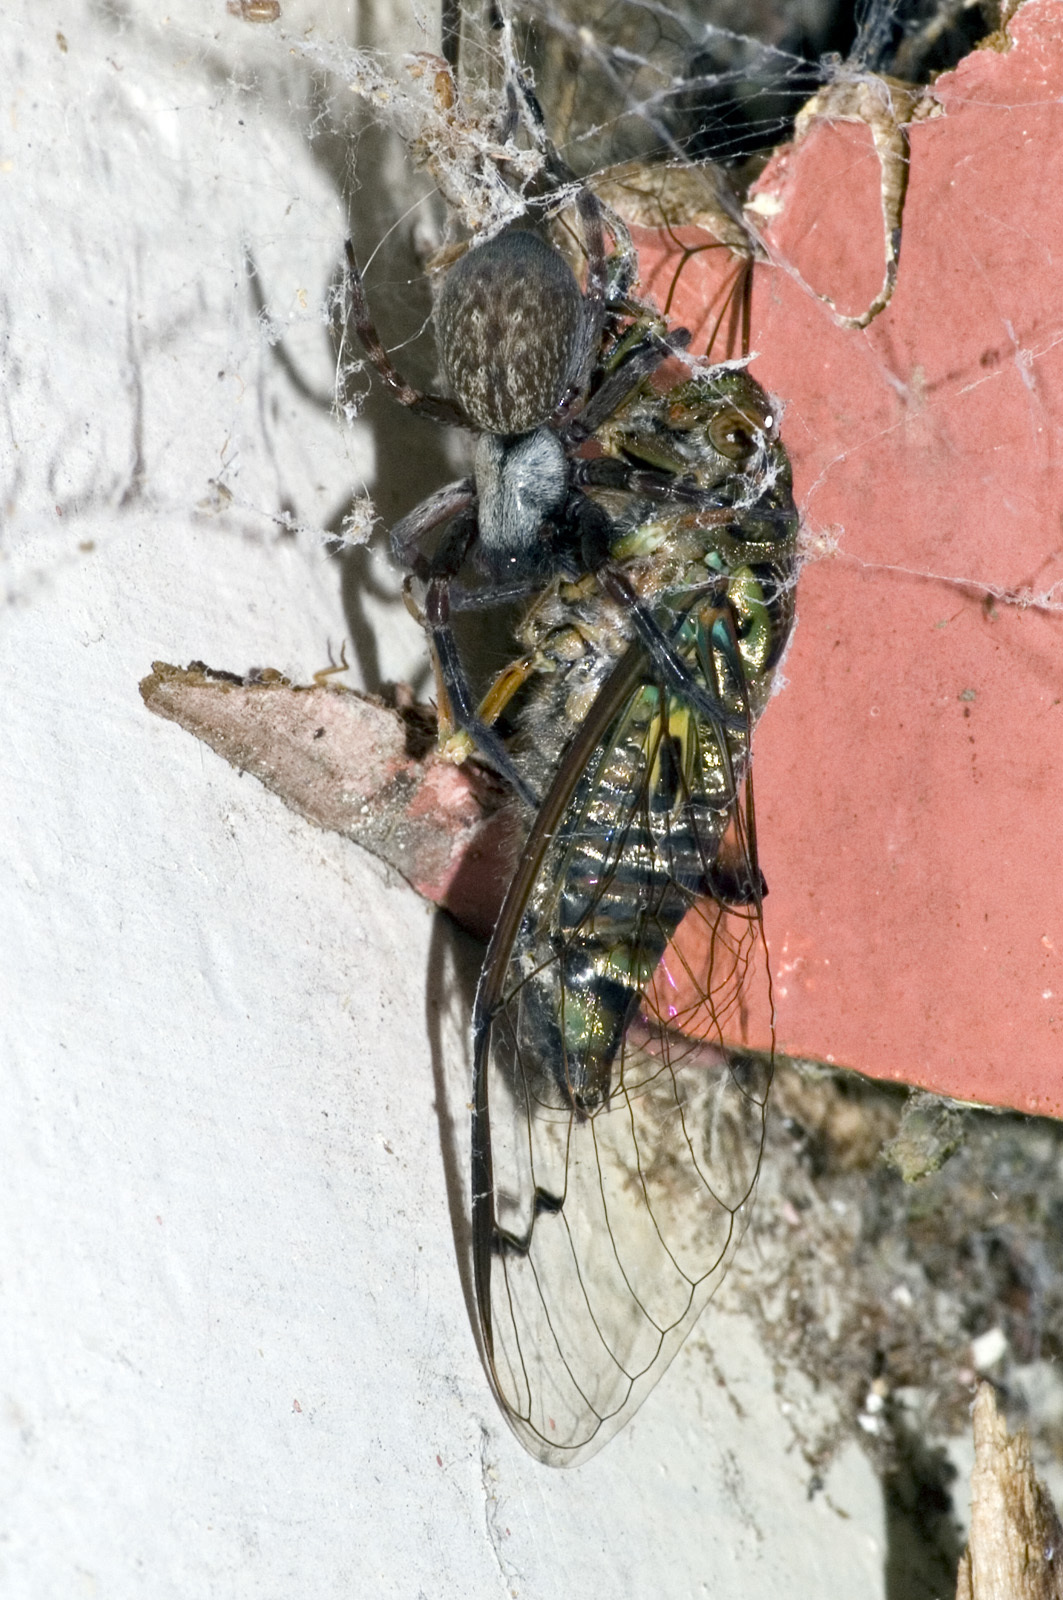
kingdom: Animalia
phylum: Arthropoda
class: Arachnida
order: Araneae
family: Desidae
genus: Badumna
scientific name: Badumna longinqua
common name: Gray house spider
